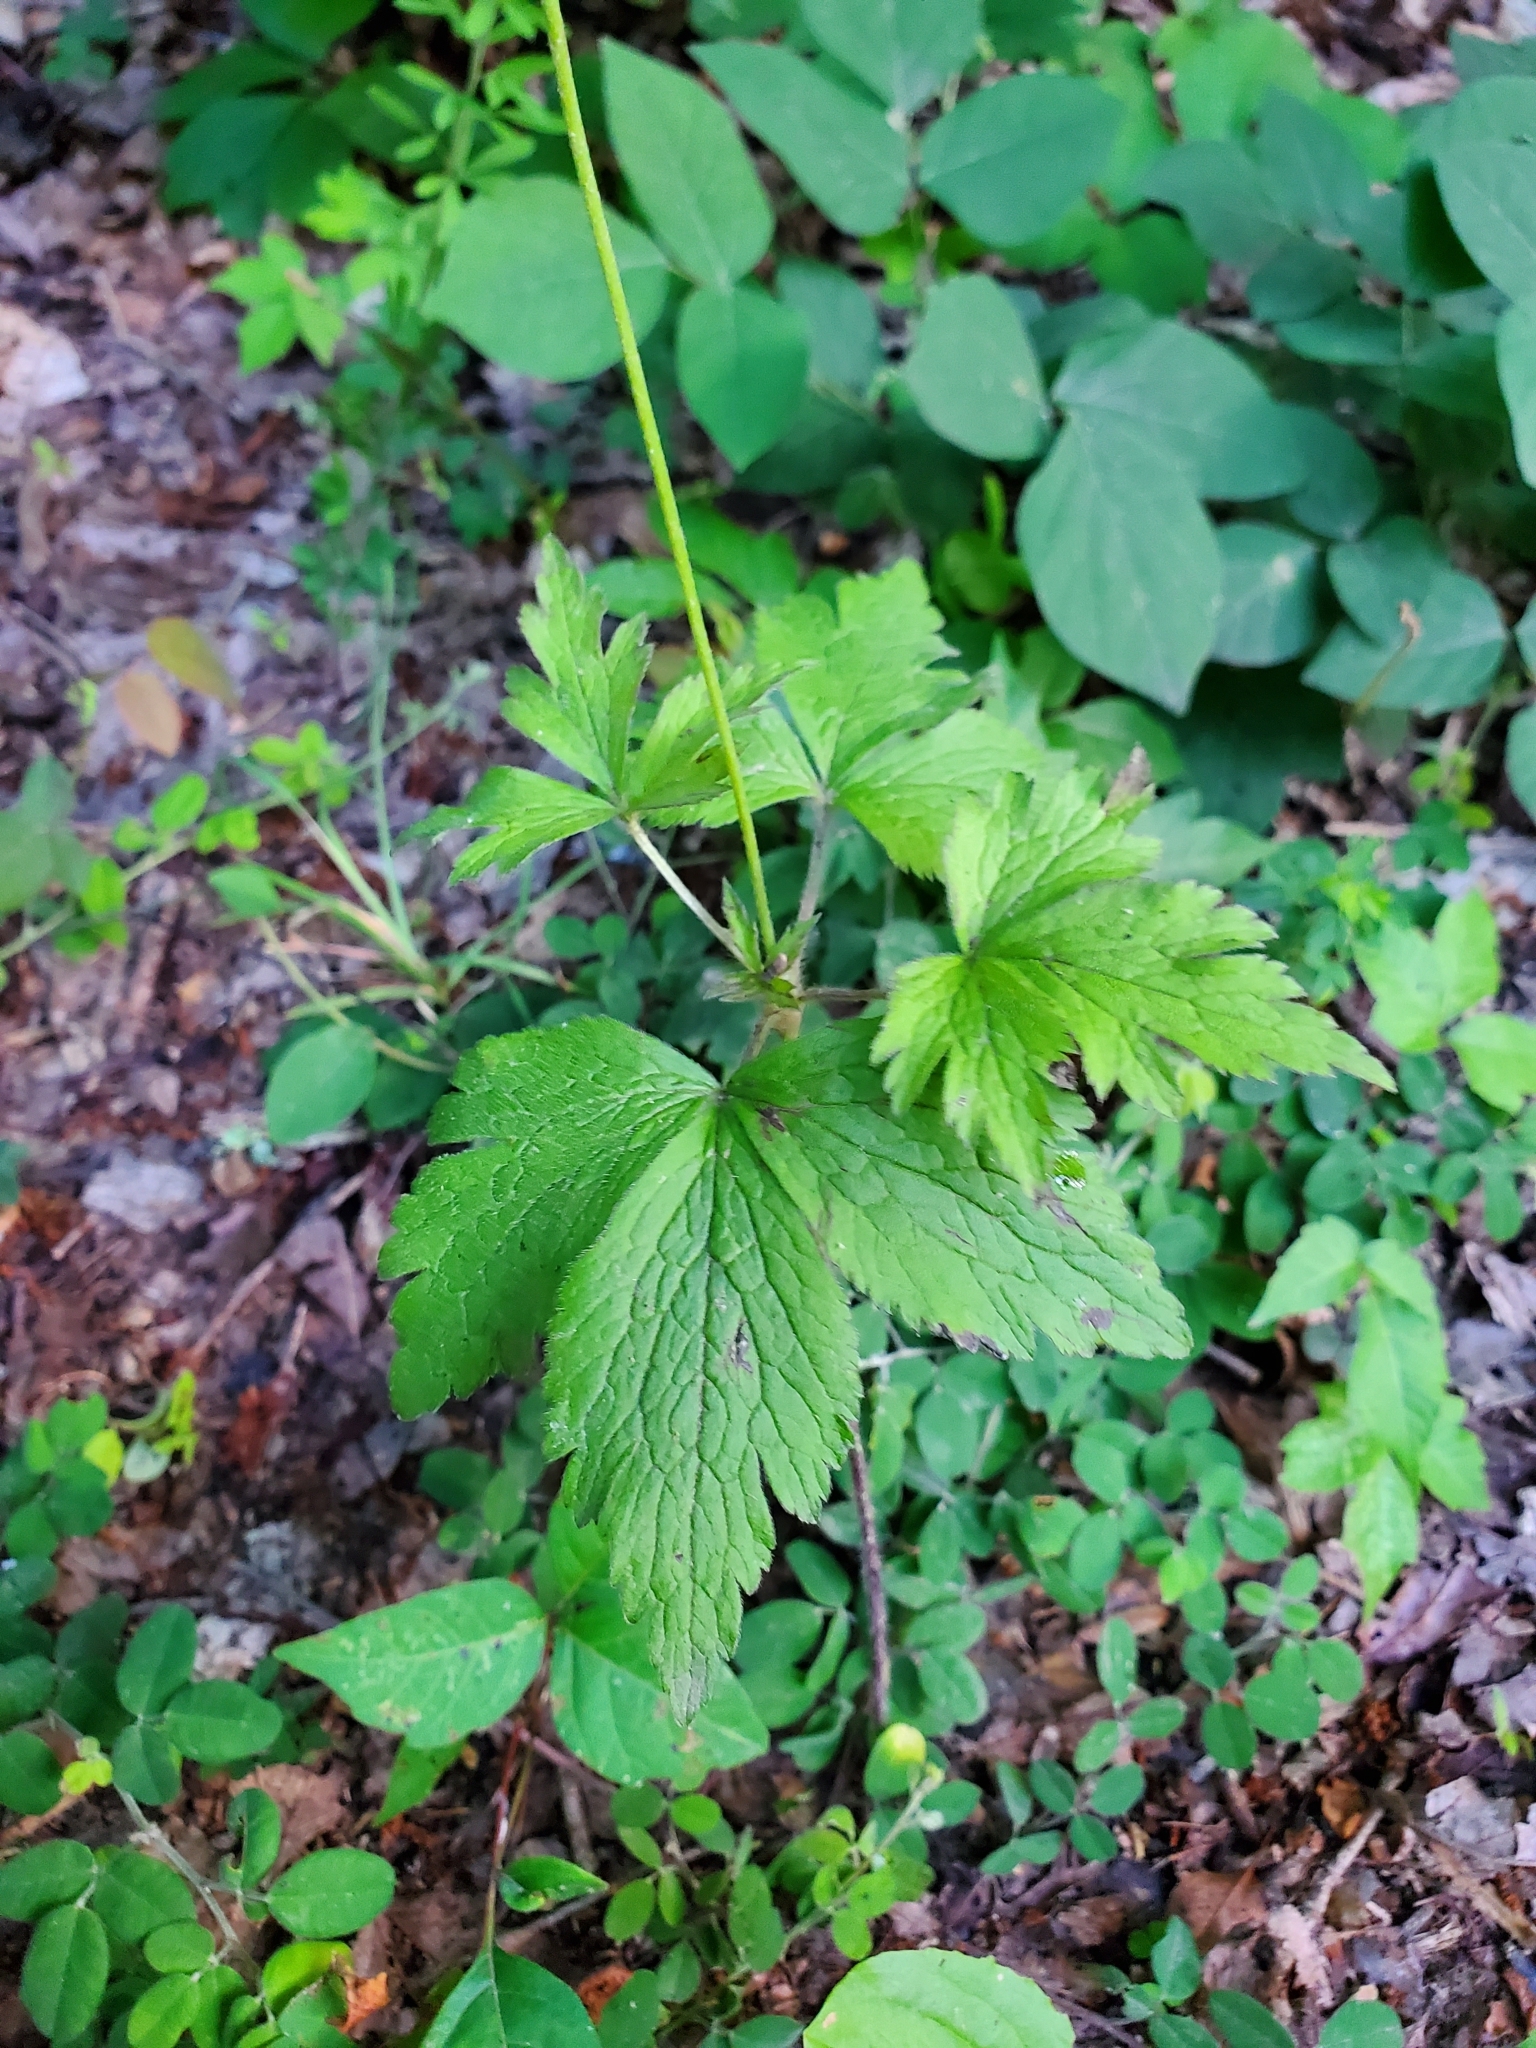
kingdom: Plantae
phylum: Tracheophyta
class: Magnoliopsida
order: Ranunculales
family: Ranunculaceae
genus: Anemone
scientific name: Anemone virginiana
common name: Tall anemone
